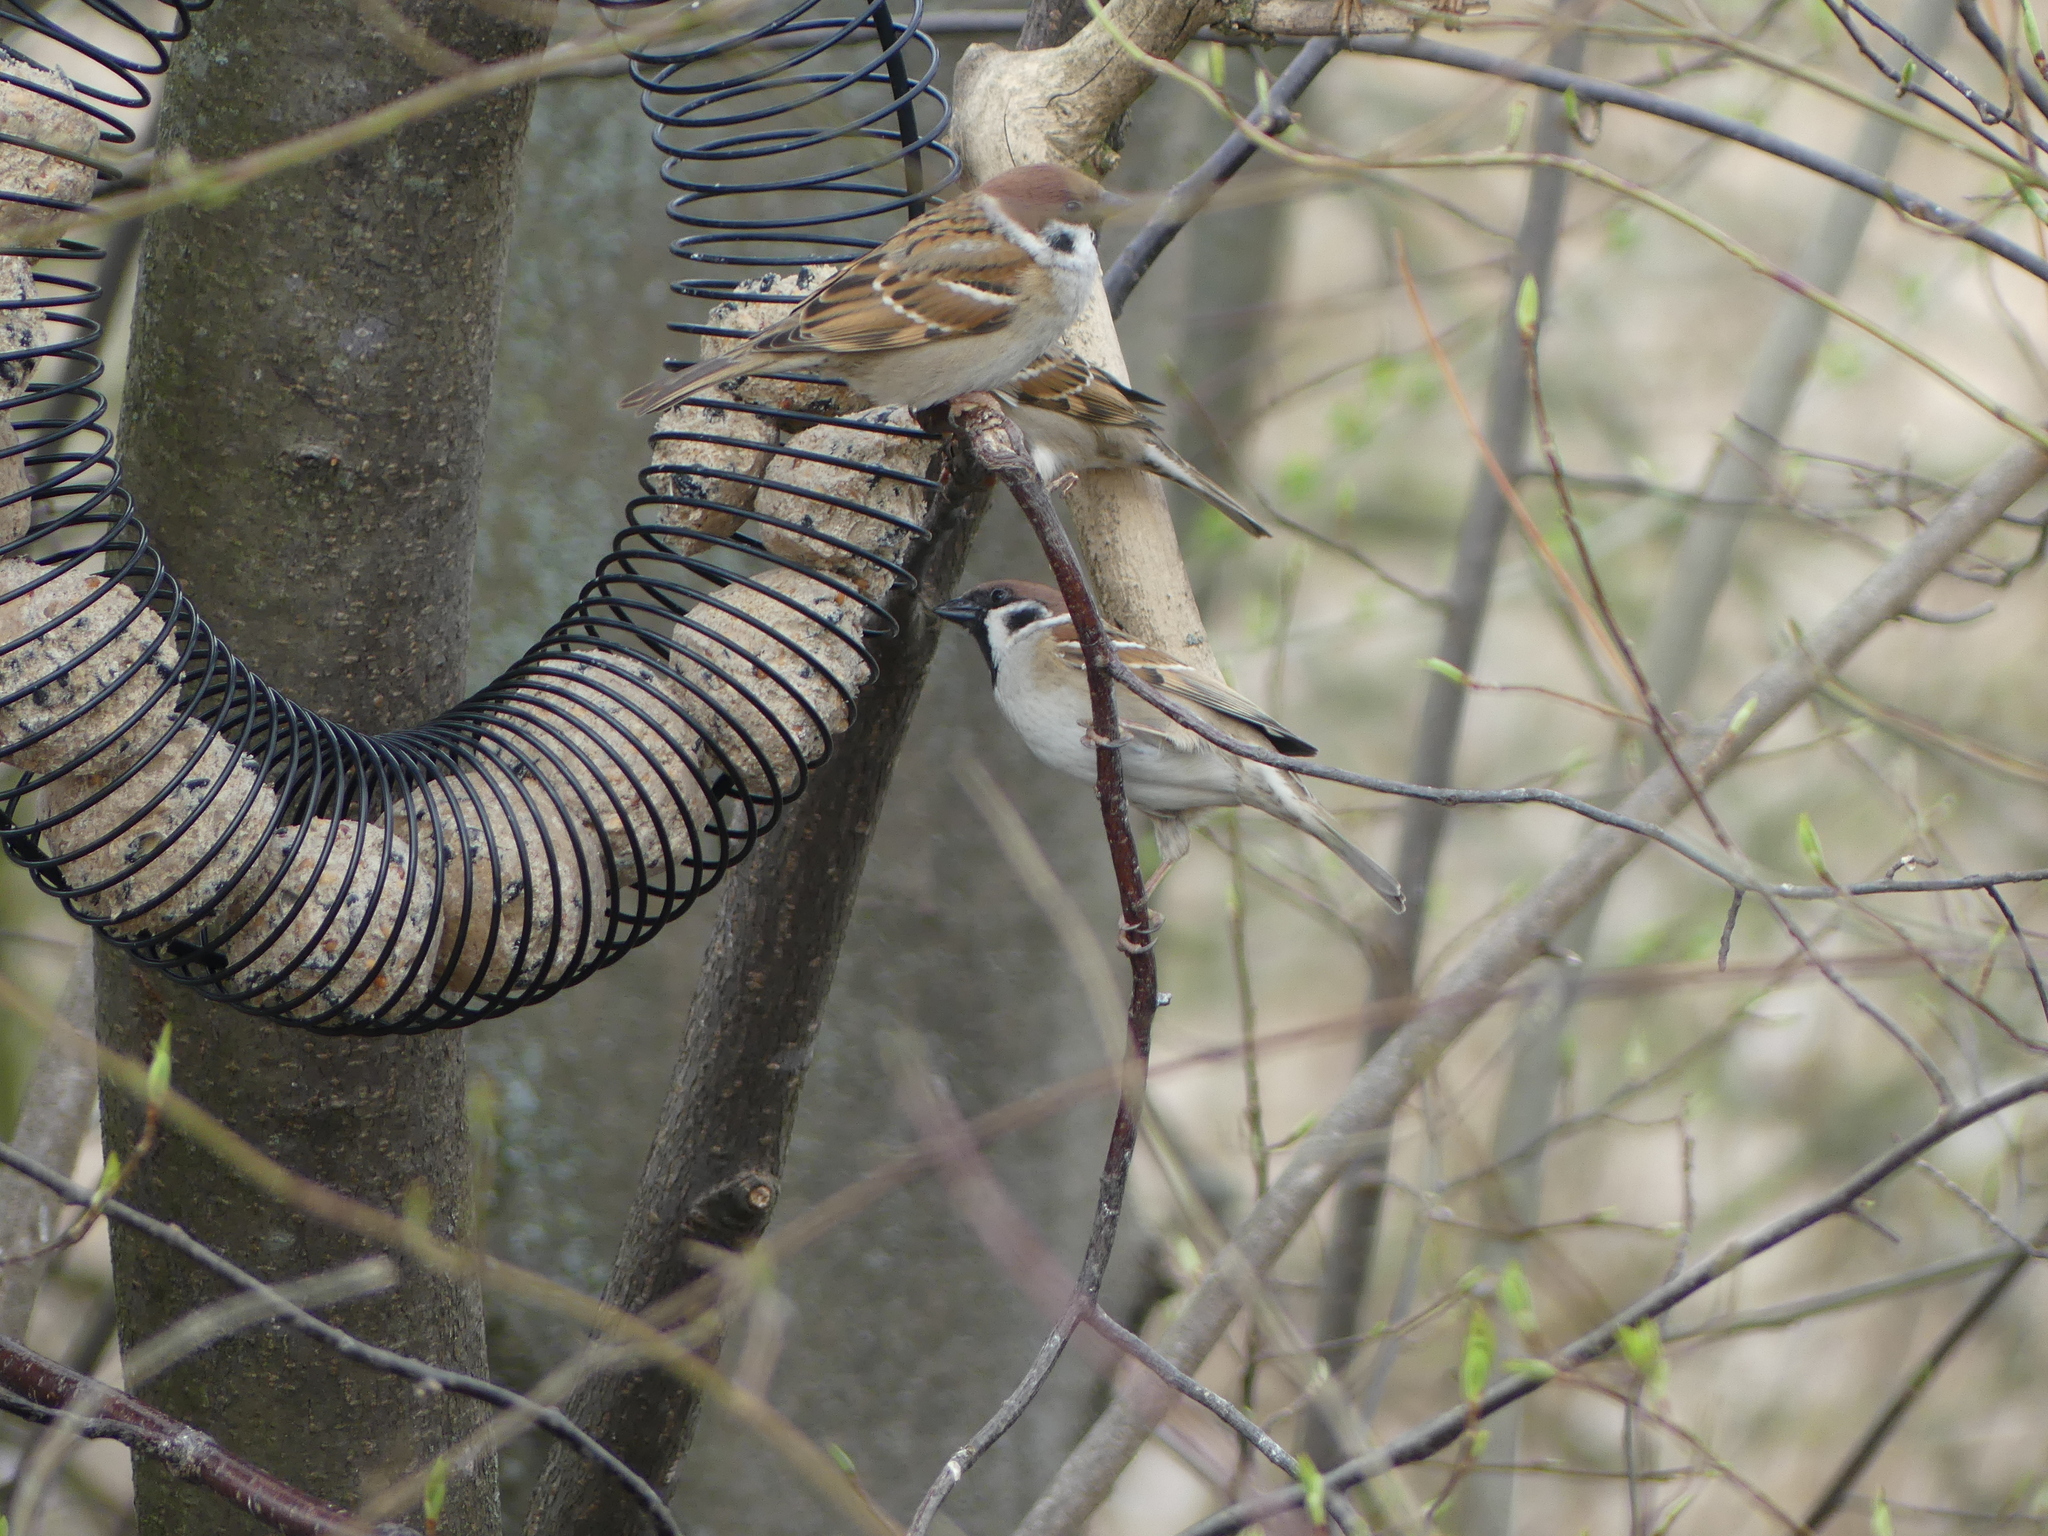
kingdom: Animalia
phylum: Chordata
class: Aves
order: Passeriformes
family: Passeridae
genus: Passer
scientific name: Passer montanus
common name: Eurasian tree sparrow
